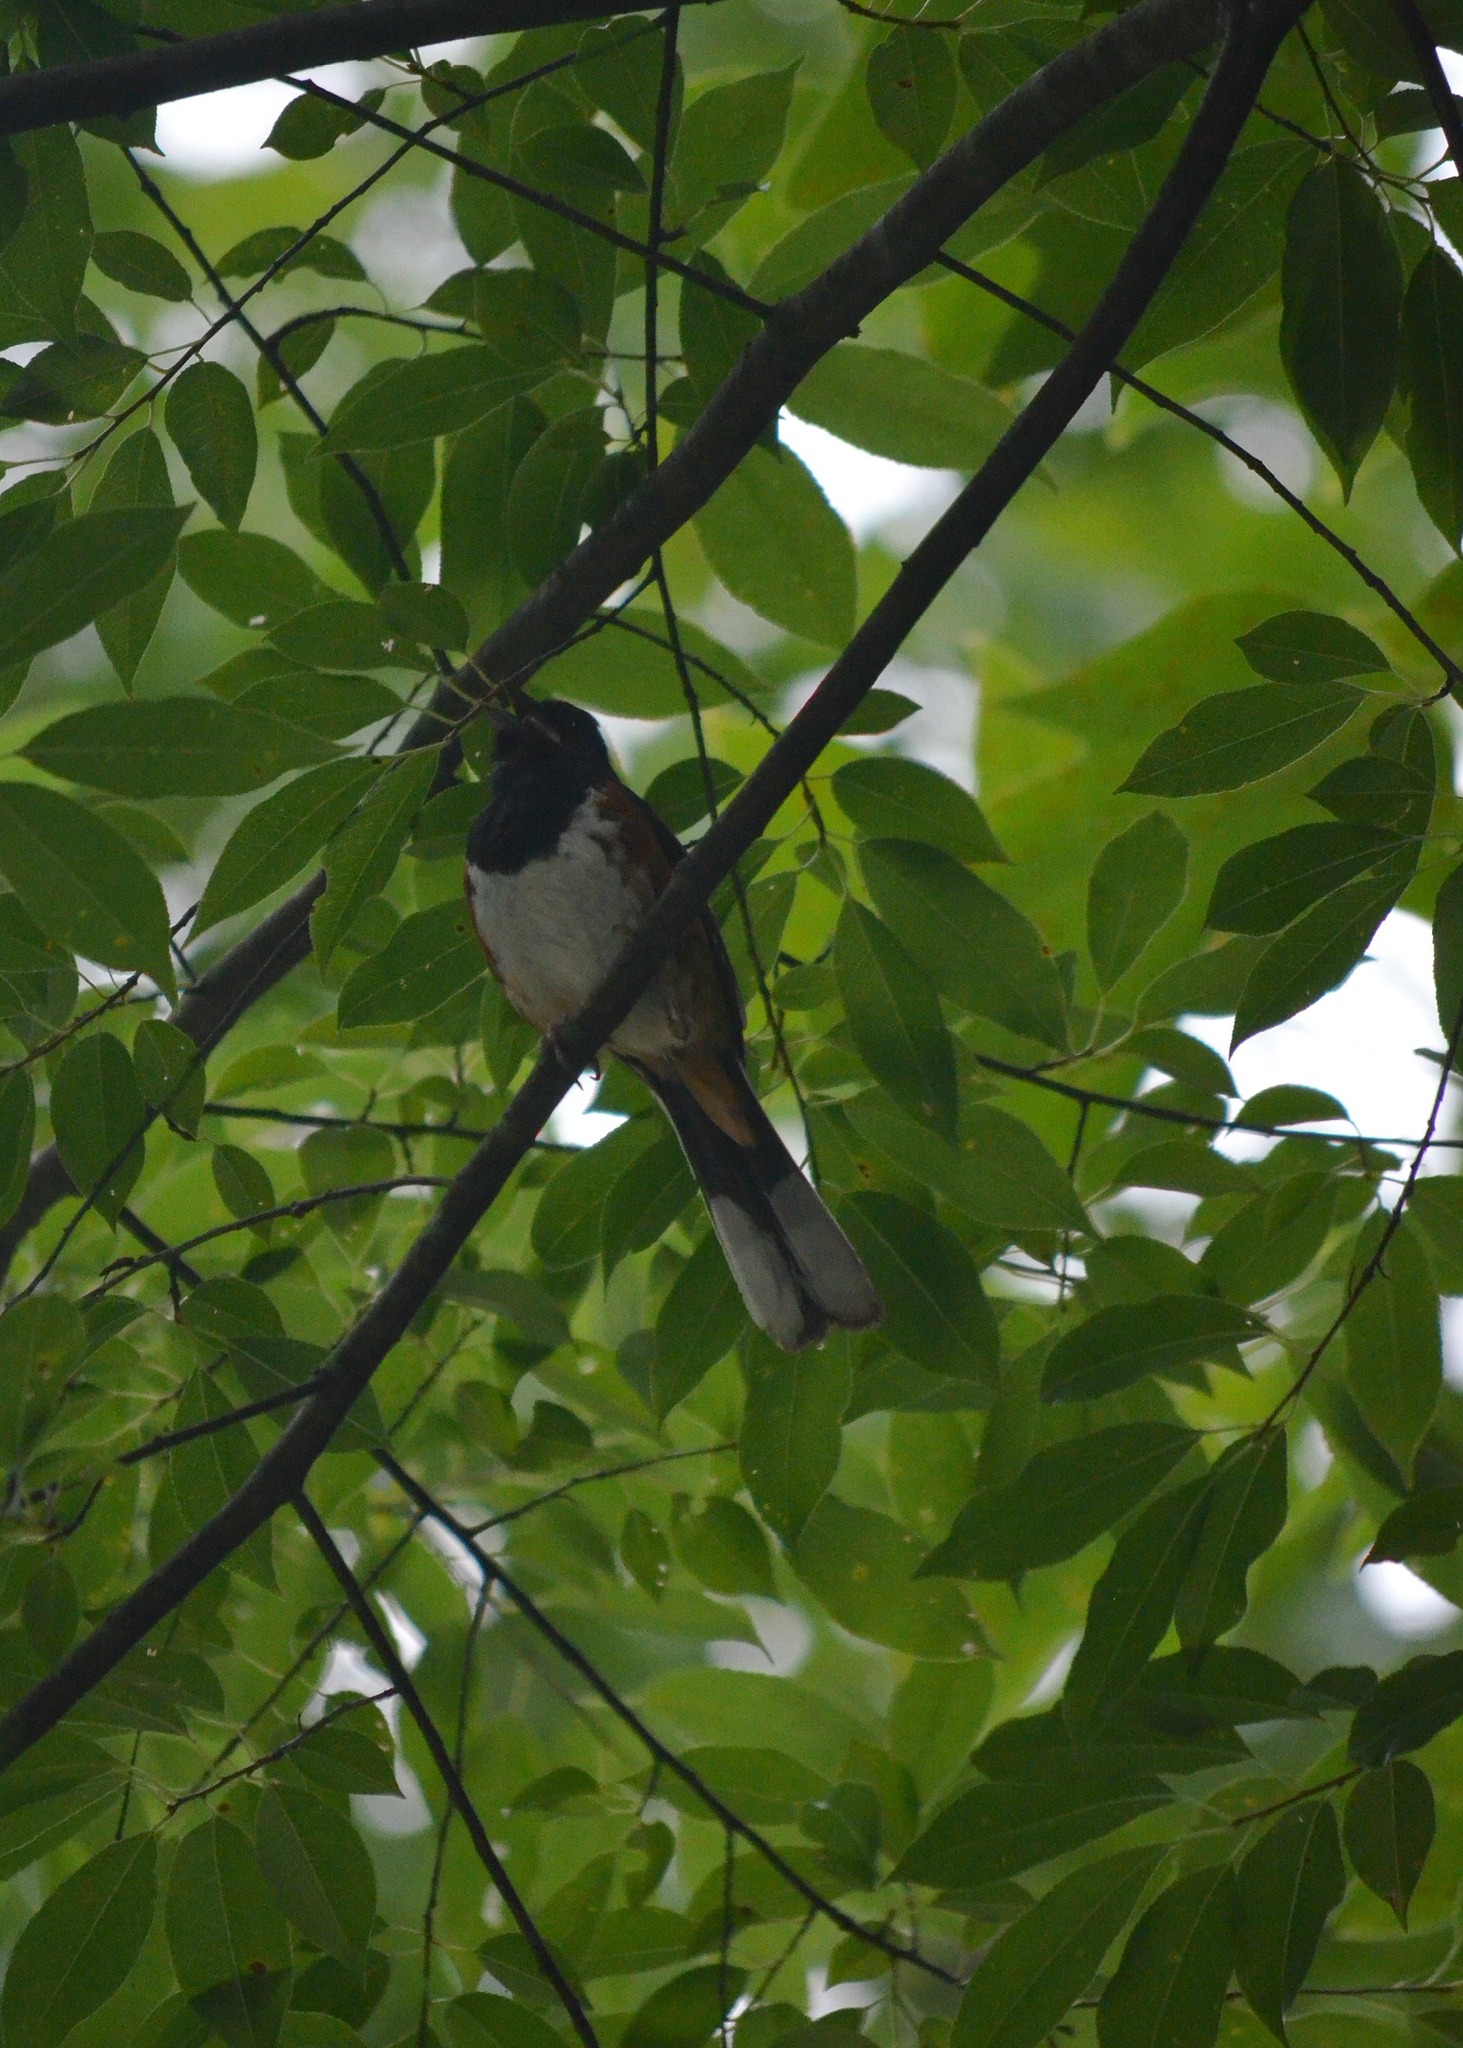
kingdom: Animalia
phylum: Chordata
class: Aves
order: Passeriformes
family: Passerellidae
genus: Pipilo
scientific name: Pipilo erythrophthalmus
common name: Eastern towhee
